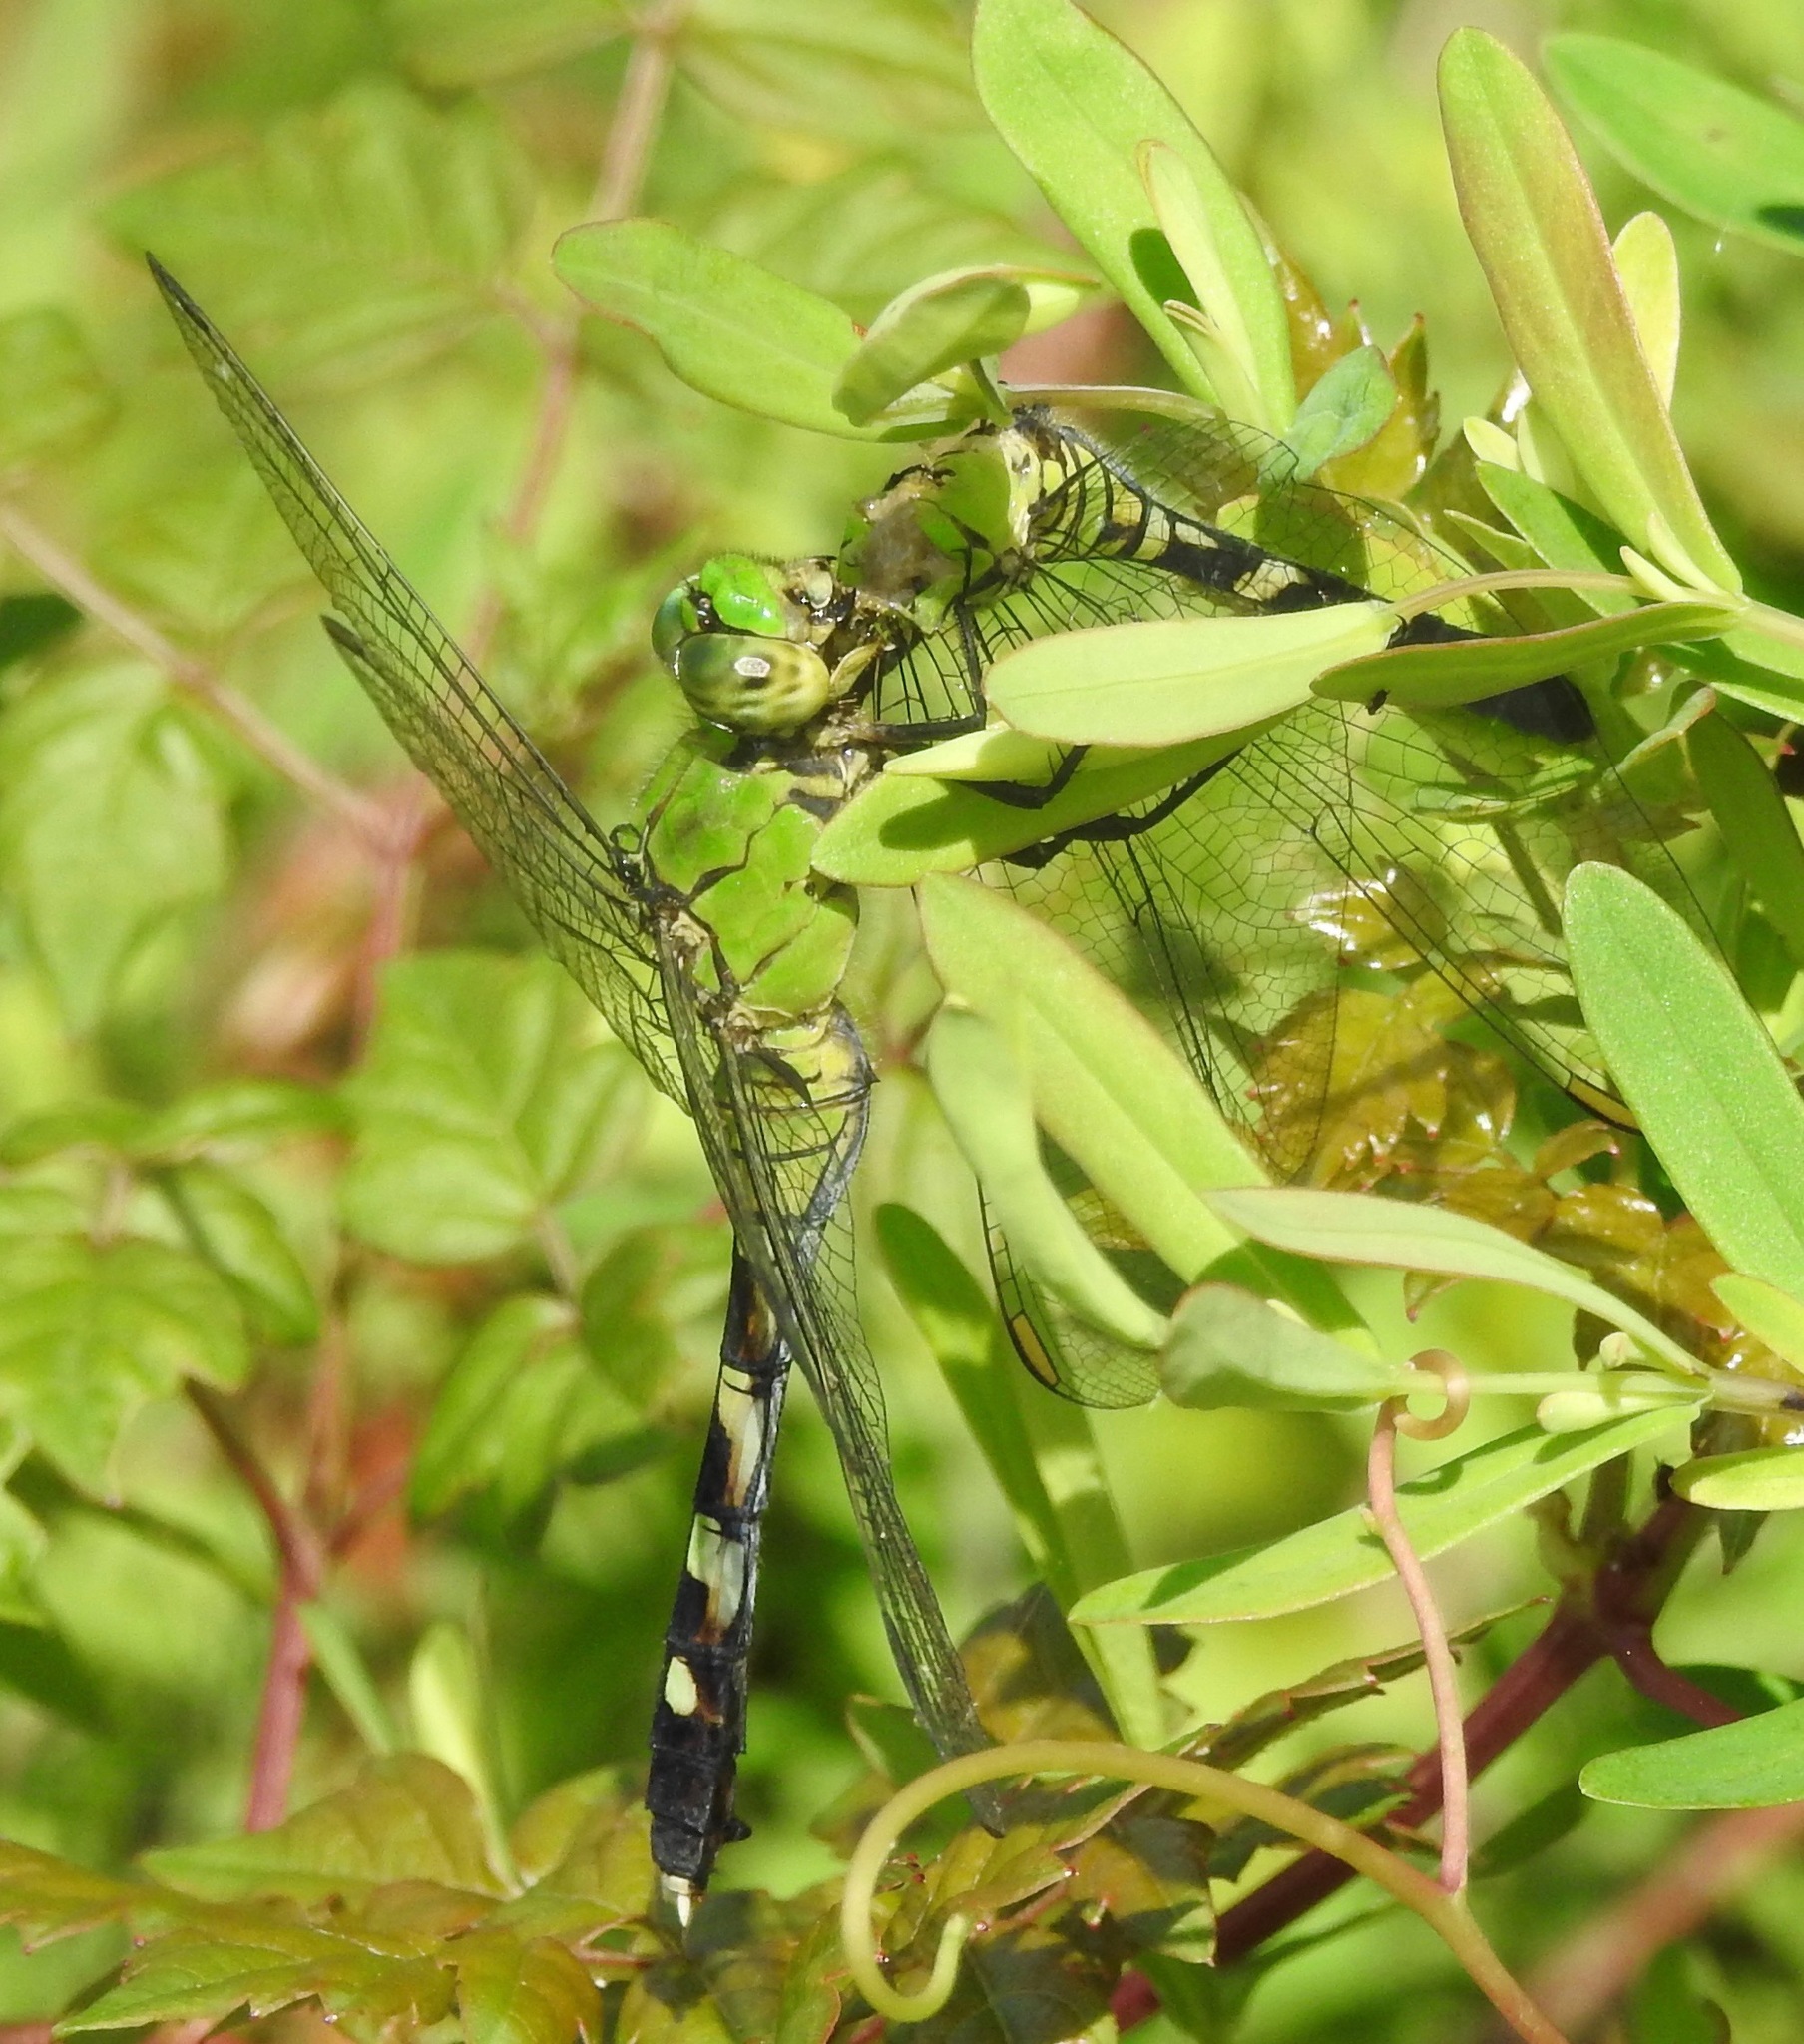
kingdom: Animalia
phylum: Arthropoda
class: Insecta
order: Odonata
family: Libellulidae
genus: Erythemis
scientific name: Erythemis simplicicollis
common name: Eastern pondhawk
